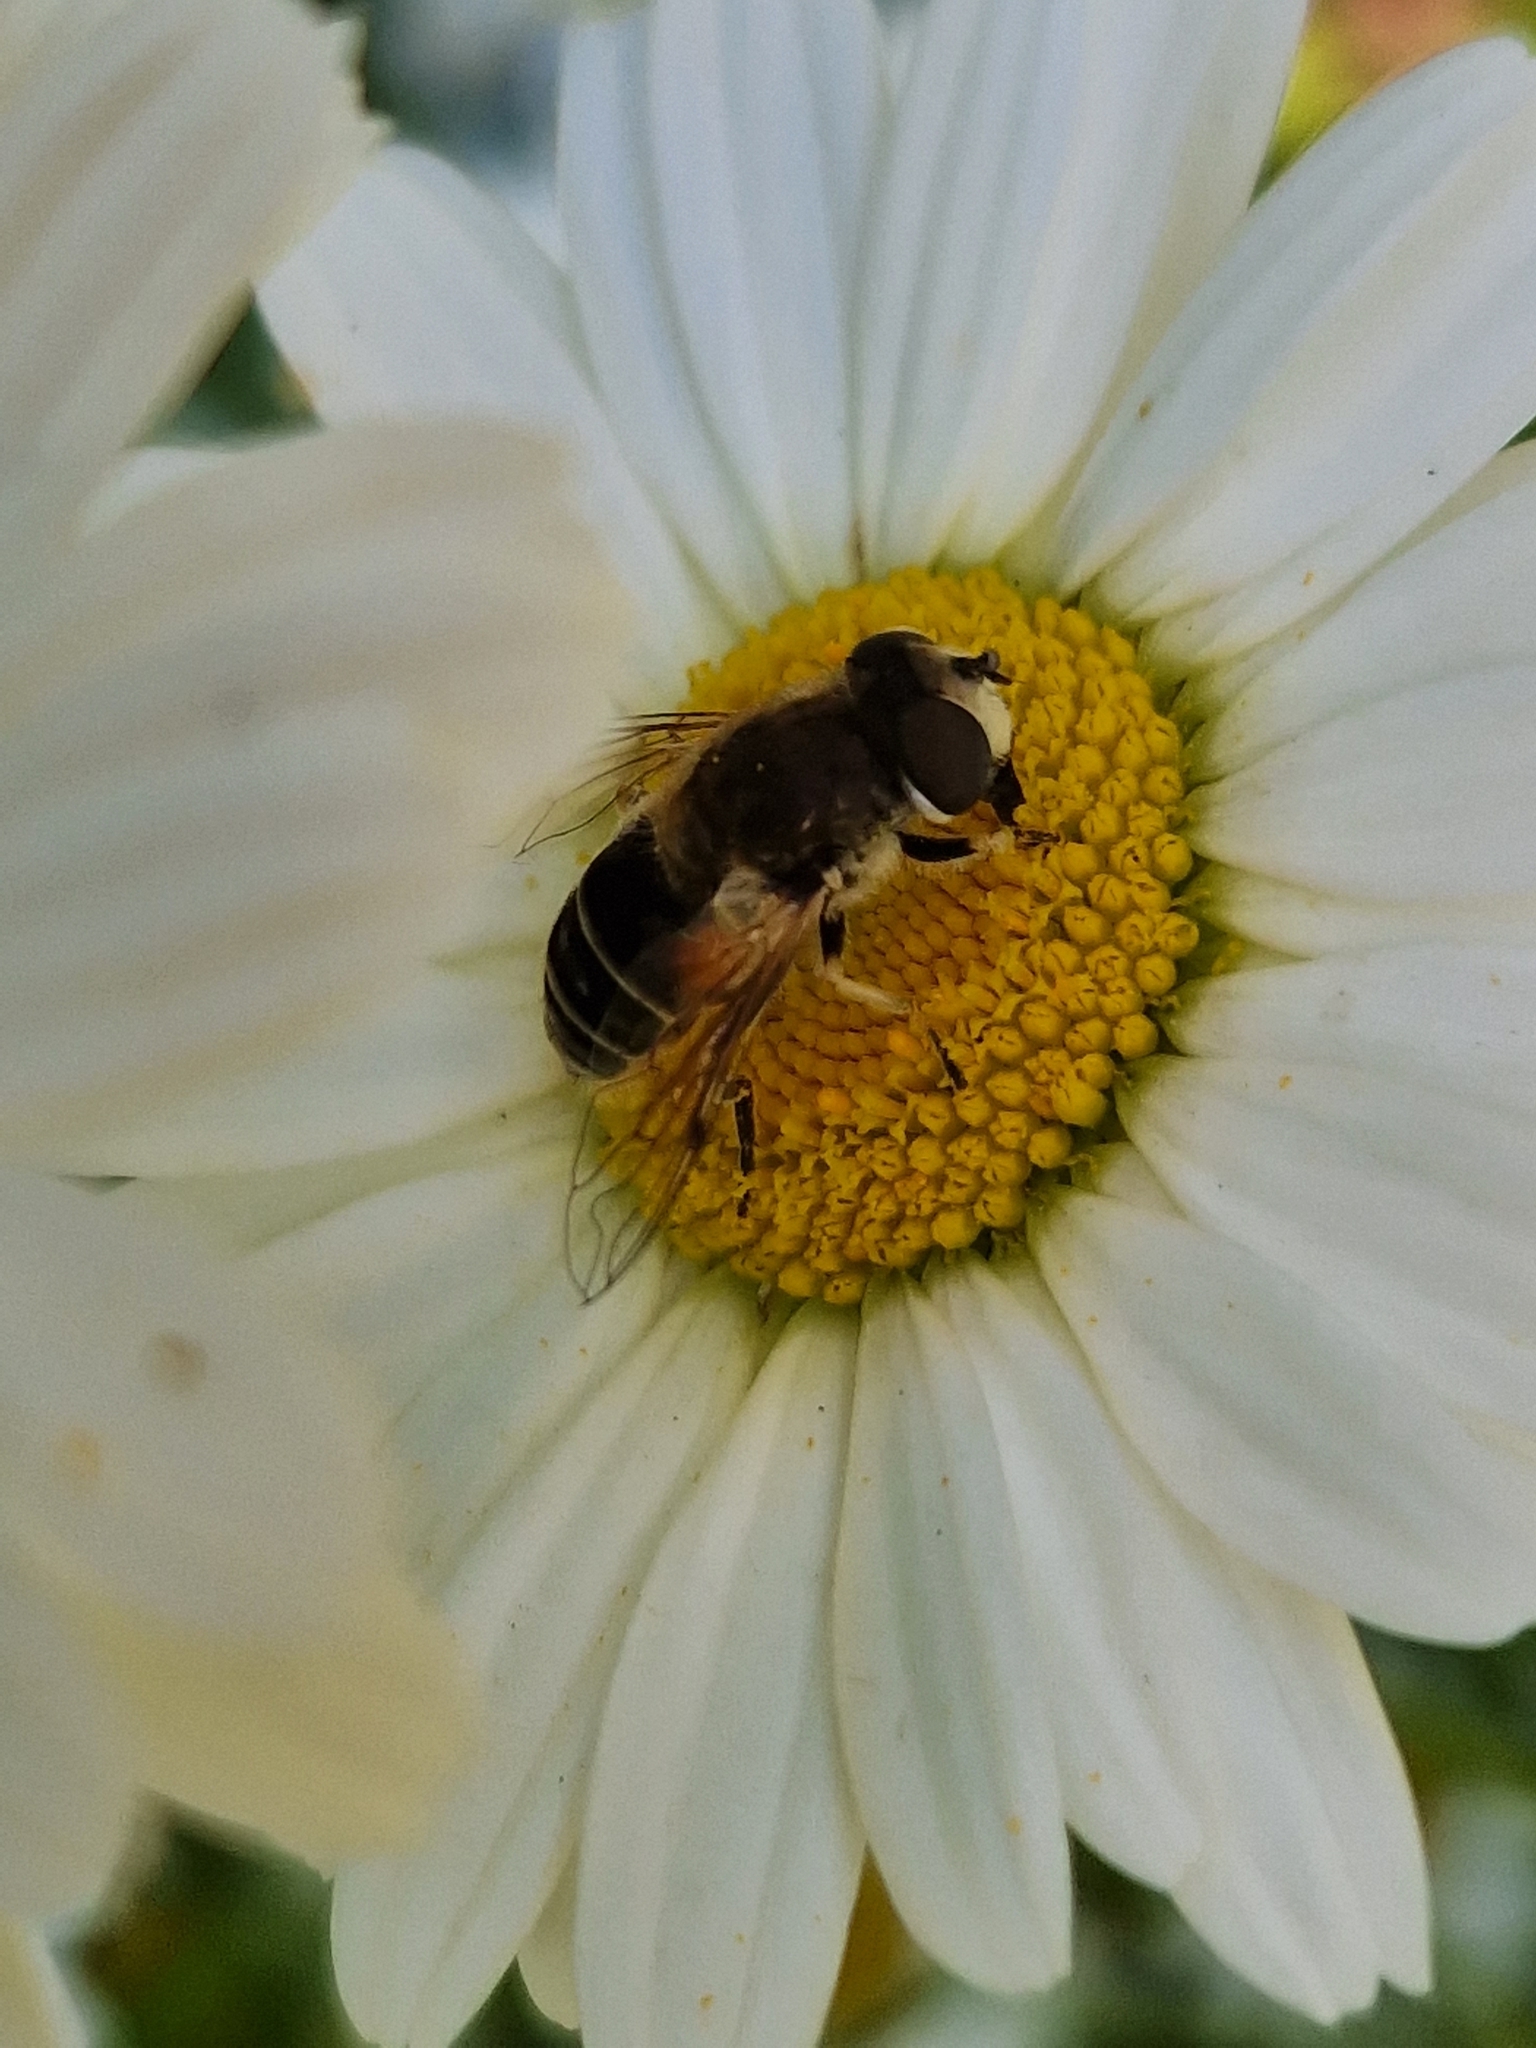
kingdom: Animalia
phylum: Arthropoda
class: Insecta
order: Diptera
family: Syrphidae
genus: Eristalis
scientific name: Eristalis arbustorum
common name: Hover fly
